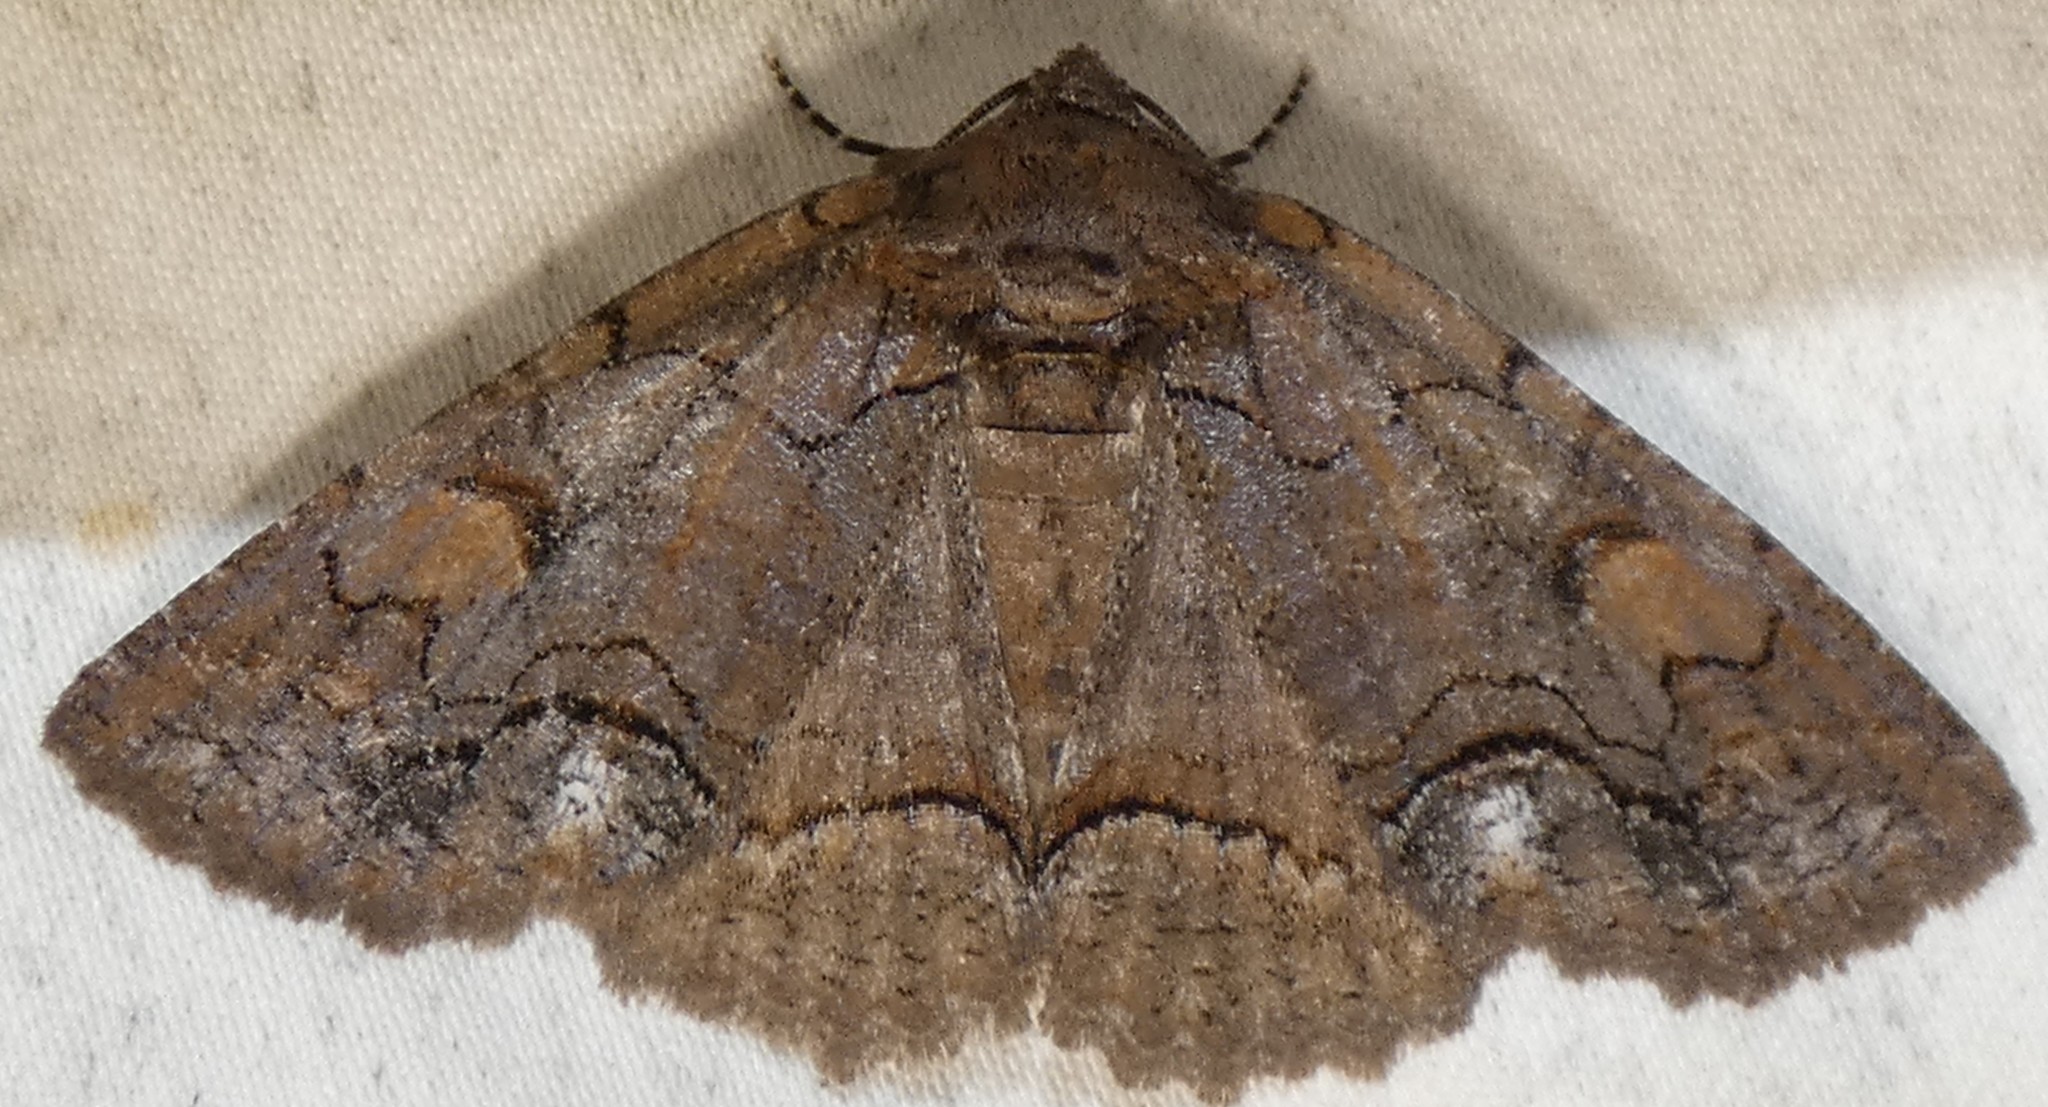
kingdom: Animalia
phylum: Arthropoda
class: Insecta
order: Lepidoptera
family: Erebidae
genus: Zale
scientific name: Zale helata
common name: Brown-spotted zale moth
